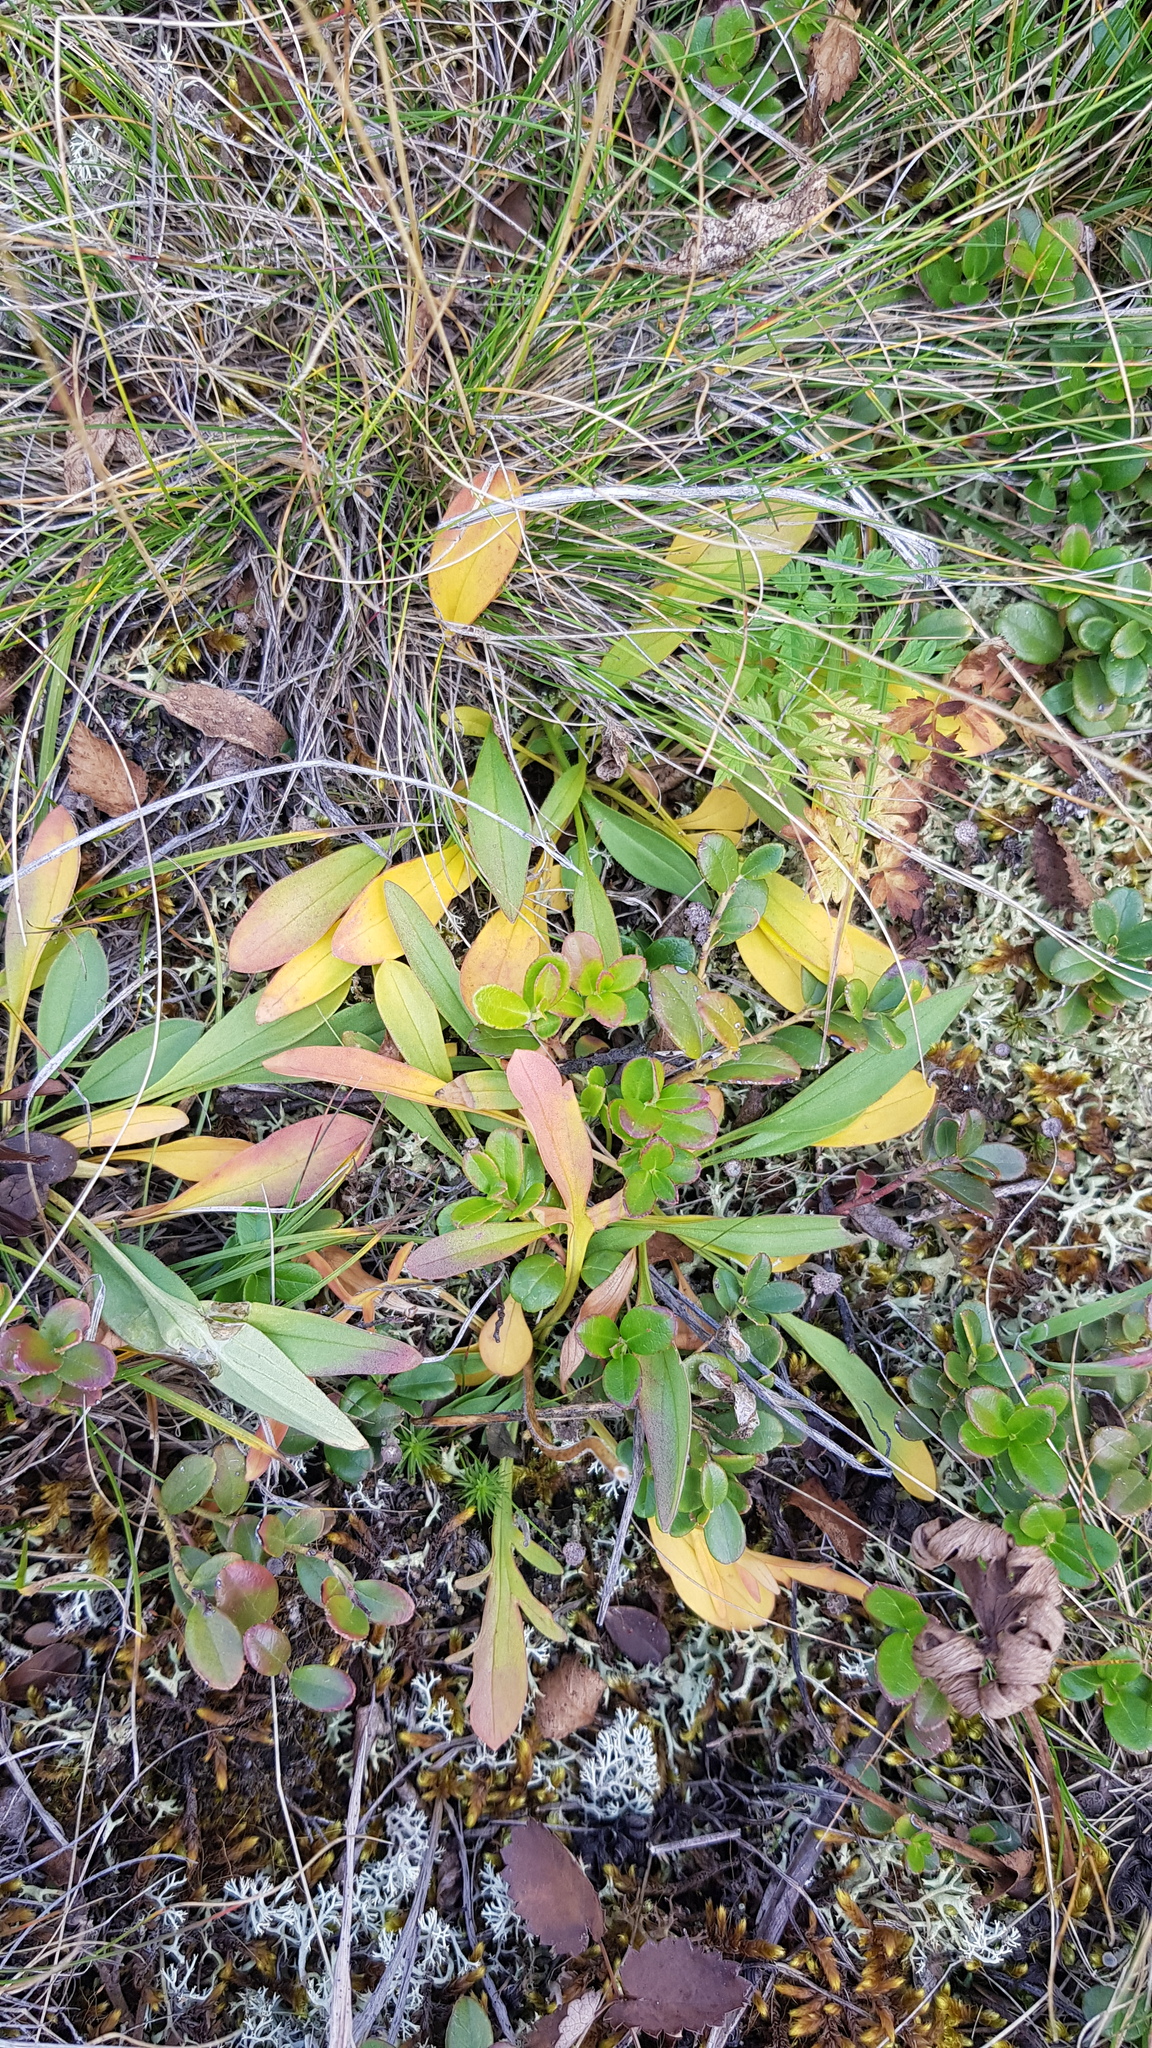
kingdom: Plantae
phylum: Tracheophyta
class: Magnoliopsida
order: Dipsacales
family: Caprifoliaceae
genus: Patrinia
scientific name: Patrinia sibirica
